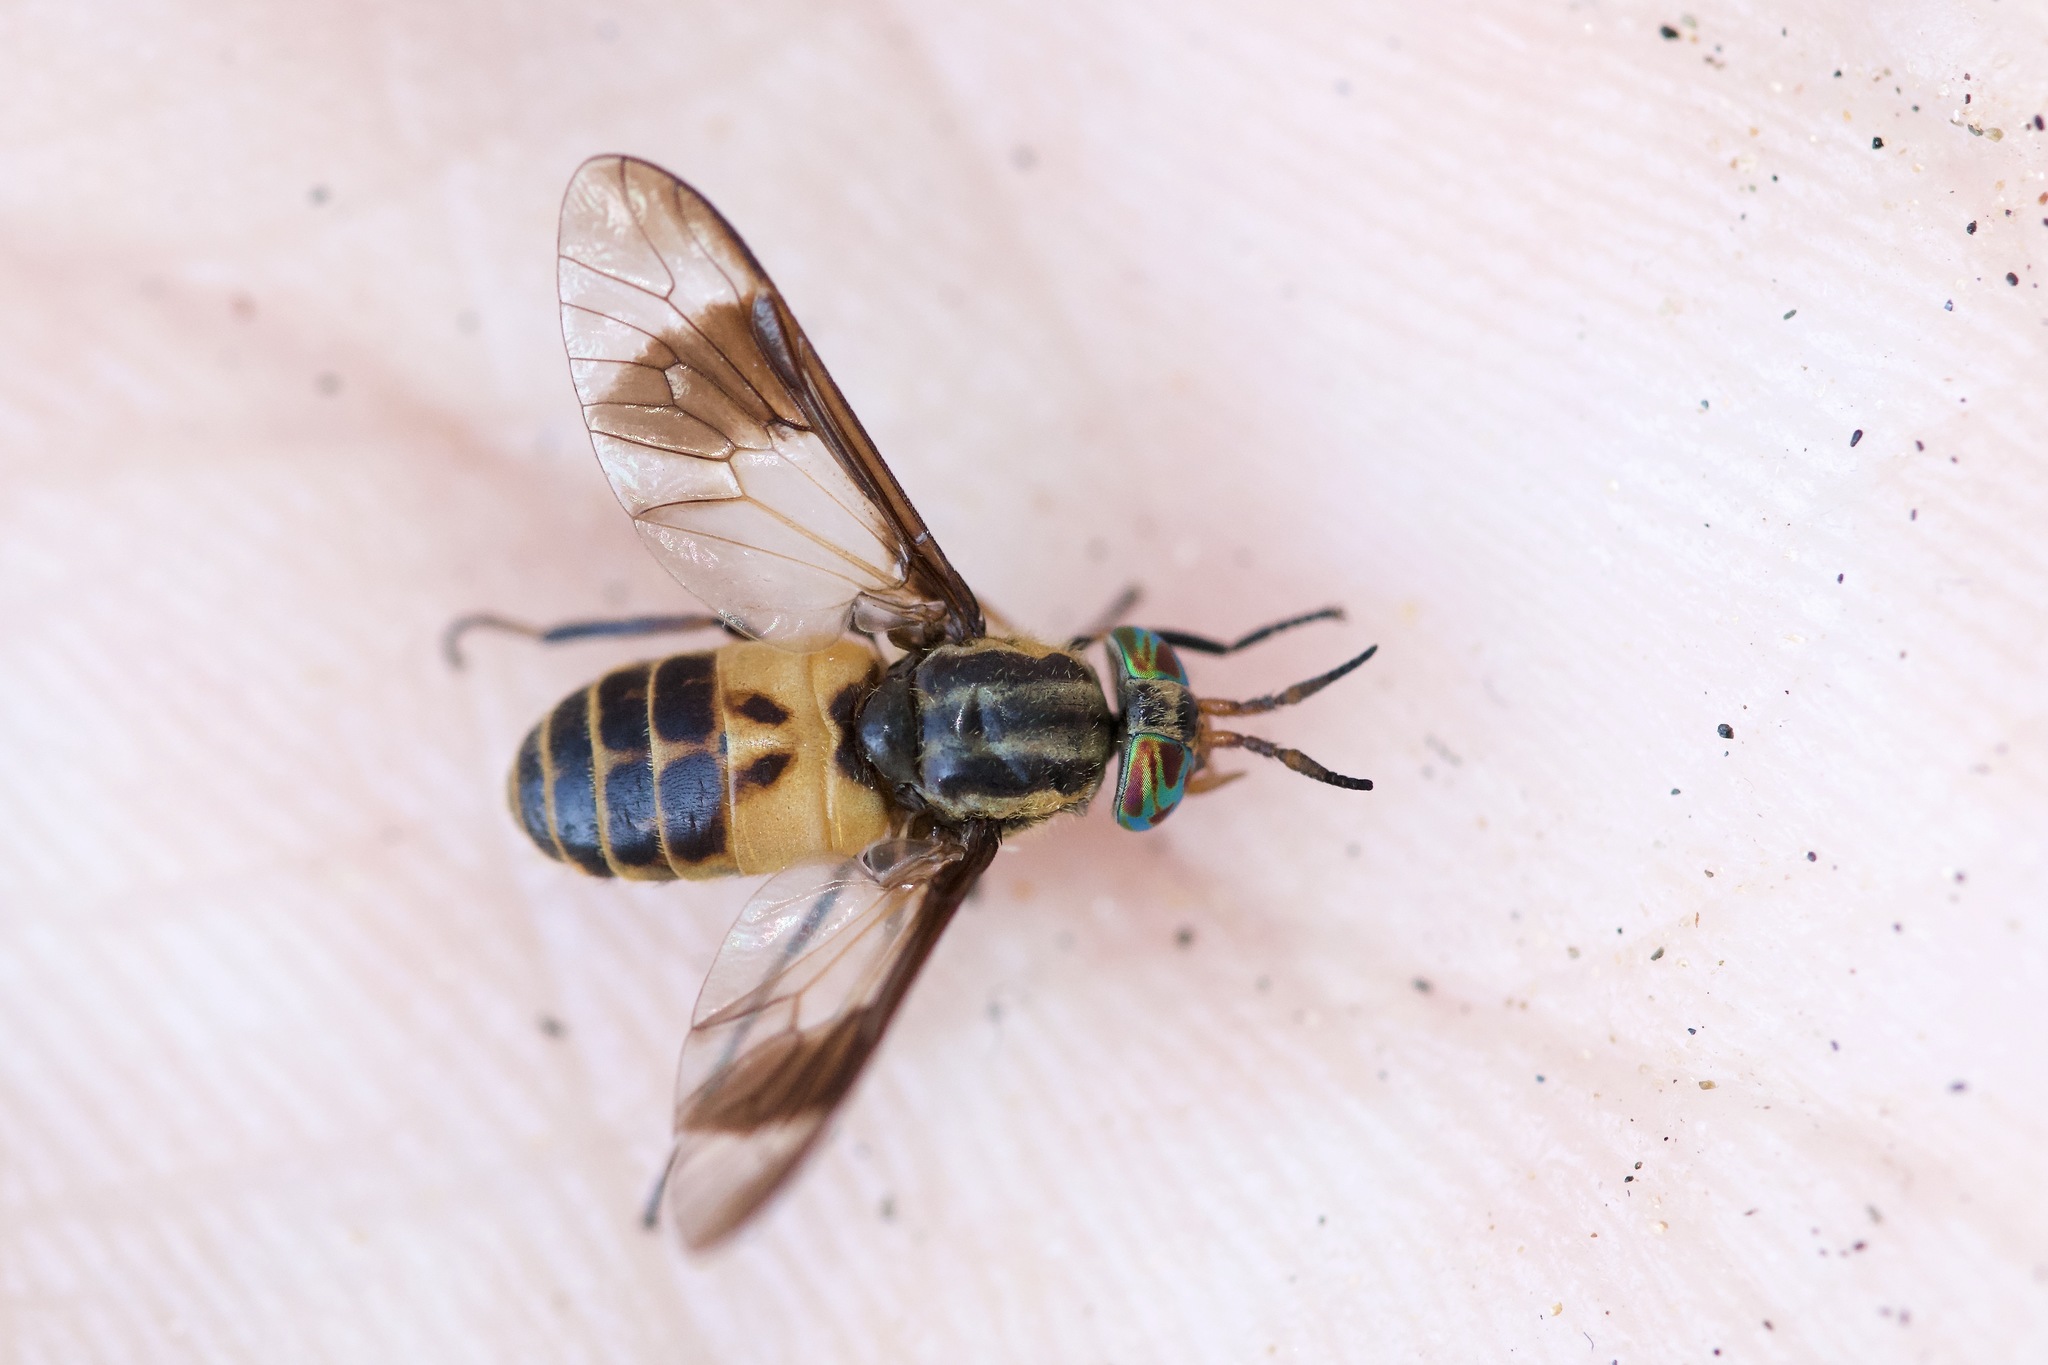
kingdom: Animalia
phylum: Arthropoda
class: Insecta
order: Diptera
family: Tabanidae
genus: Chrysops
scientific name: Chrysops geminatus
